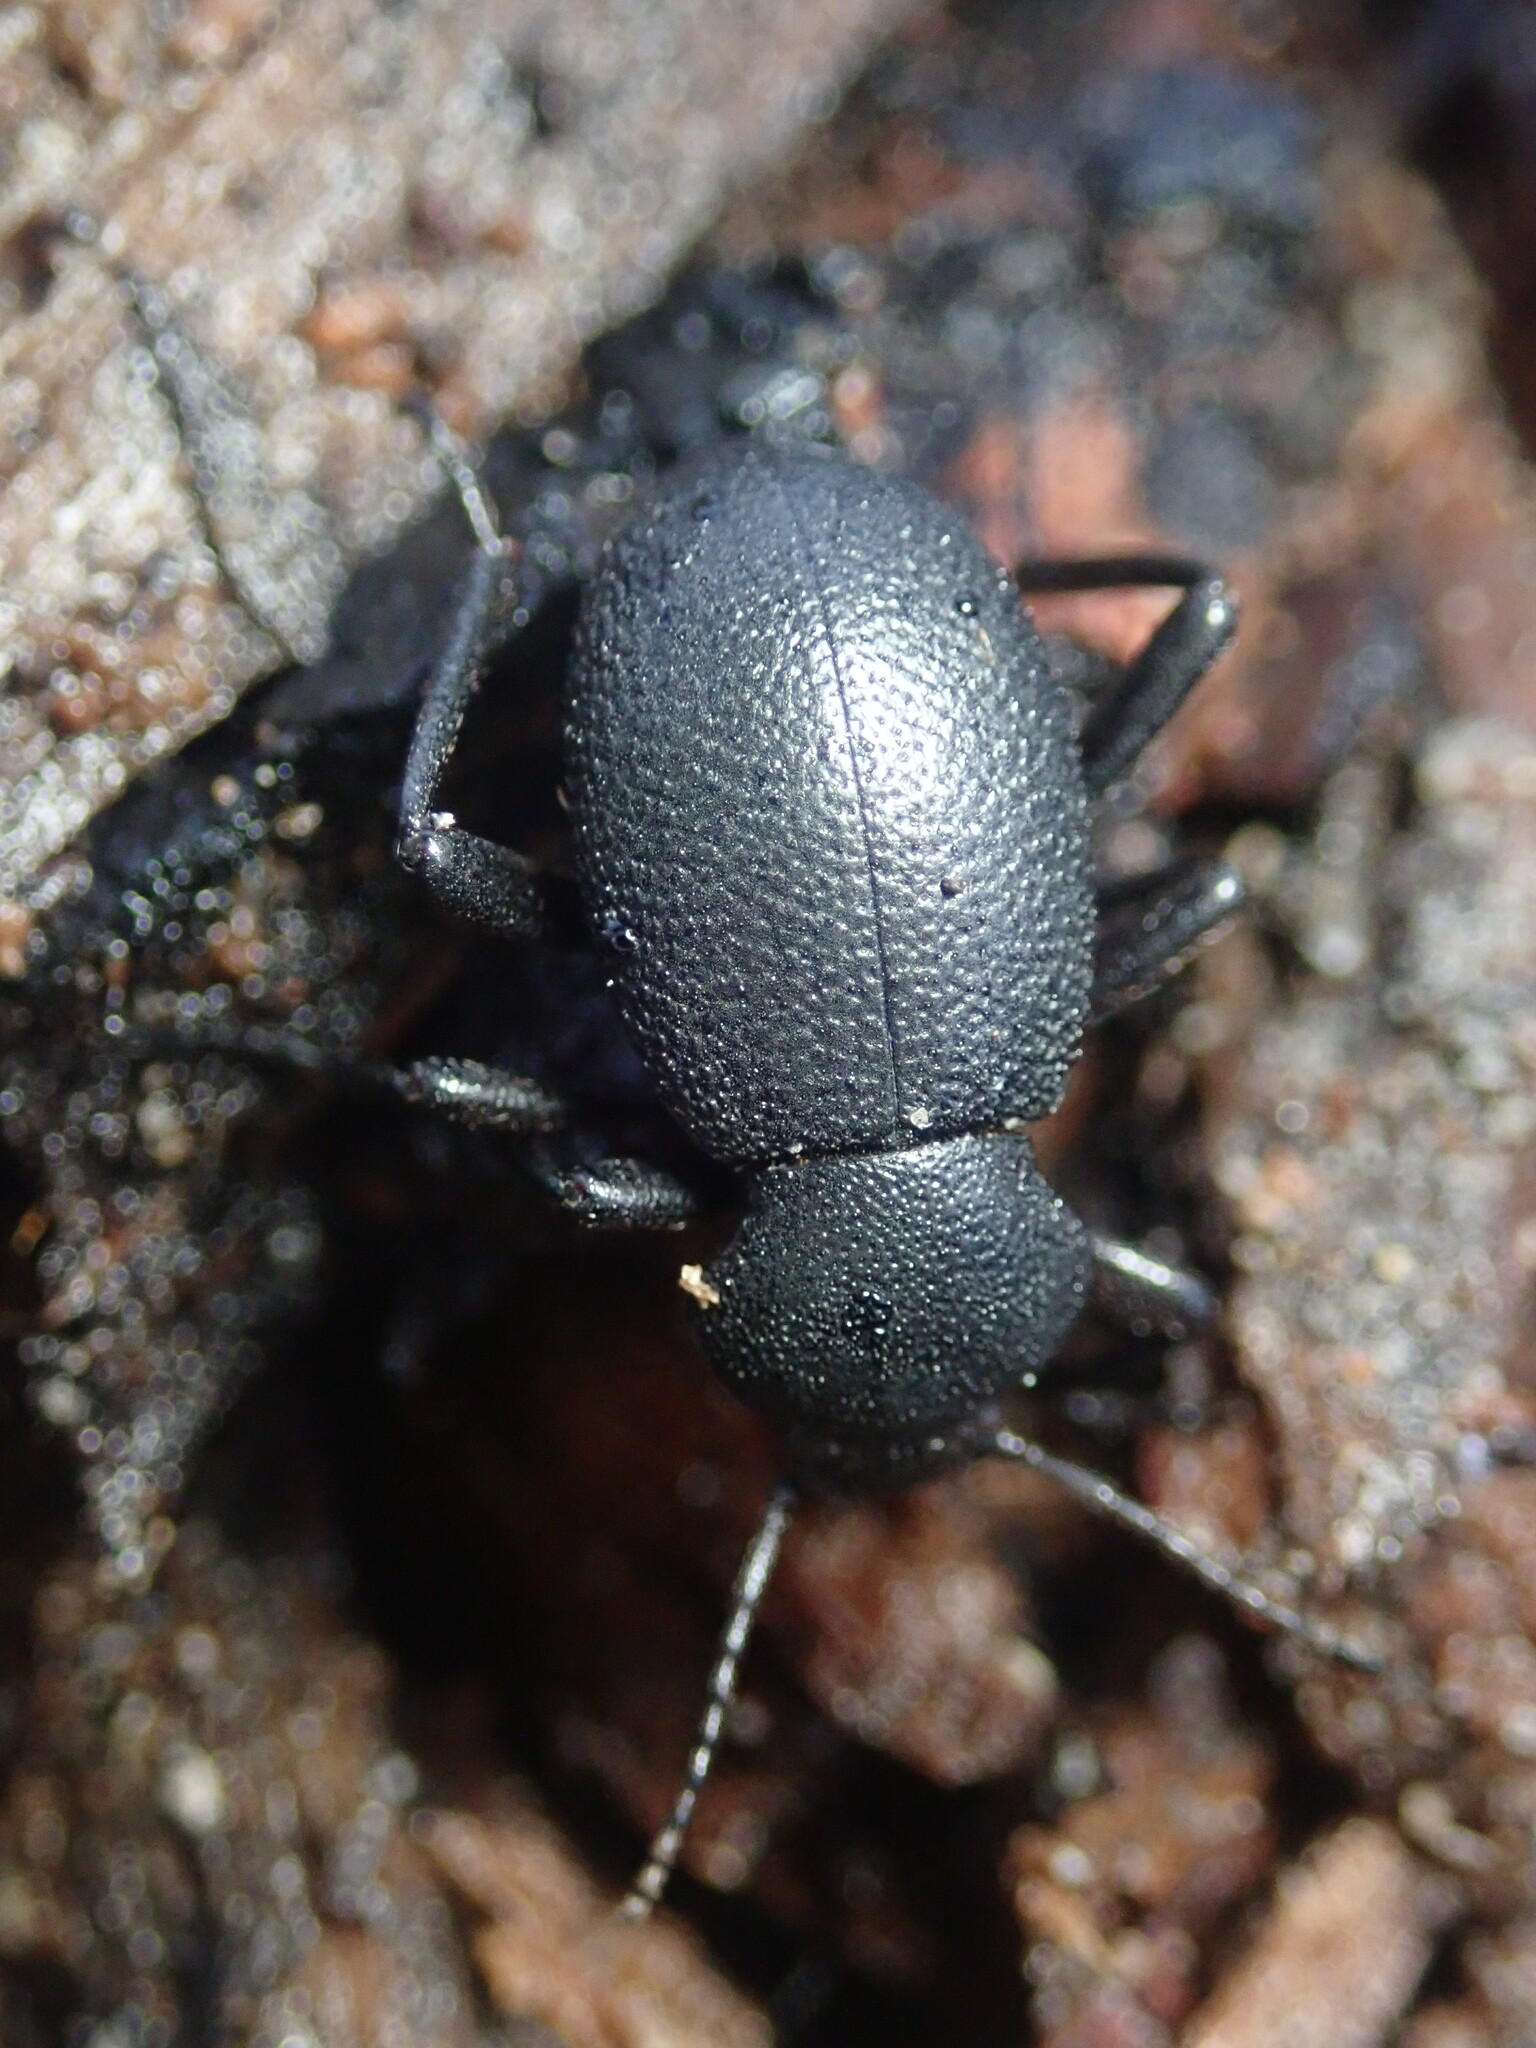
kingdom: Animalia
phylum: Arthropoda
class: Insecta
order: Coleoptera
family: Tenebrionidae
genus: Eleodes
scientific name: Eleodes cordata
